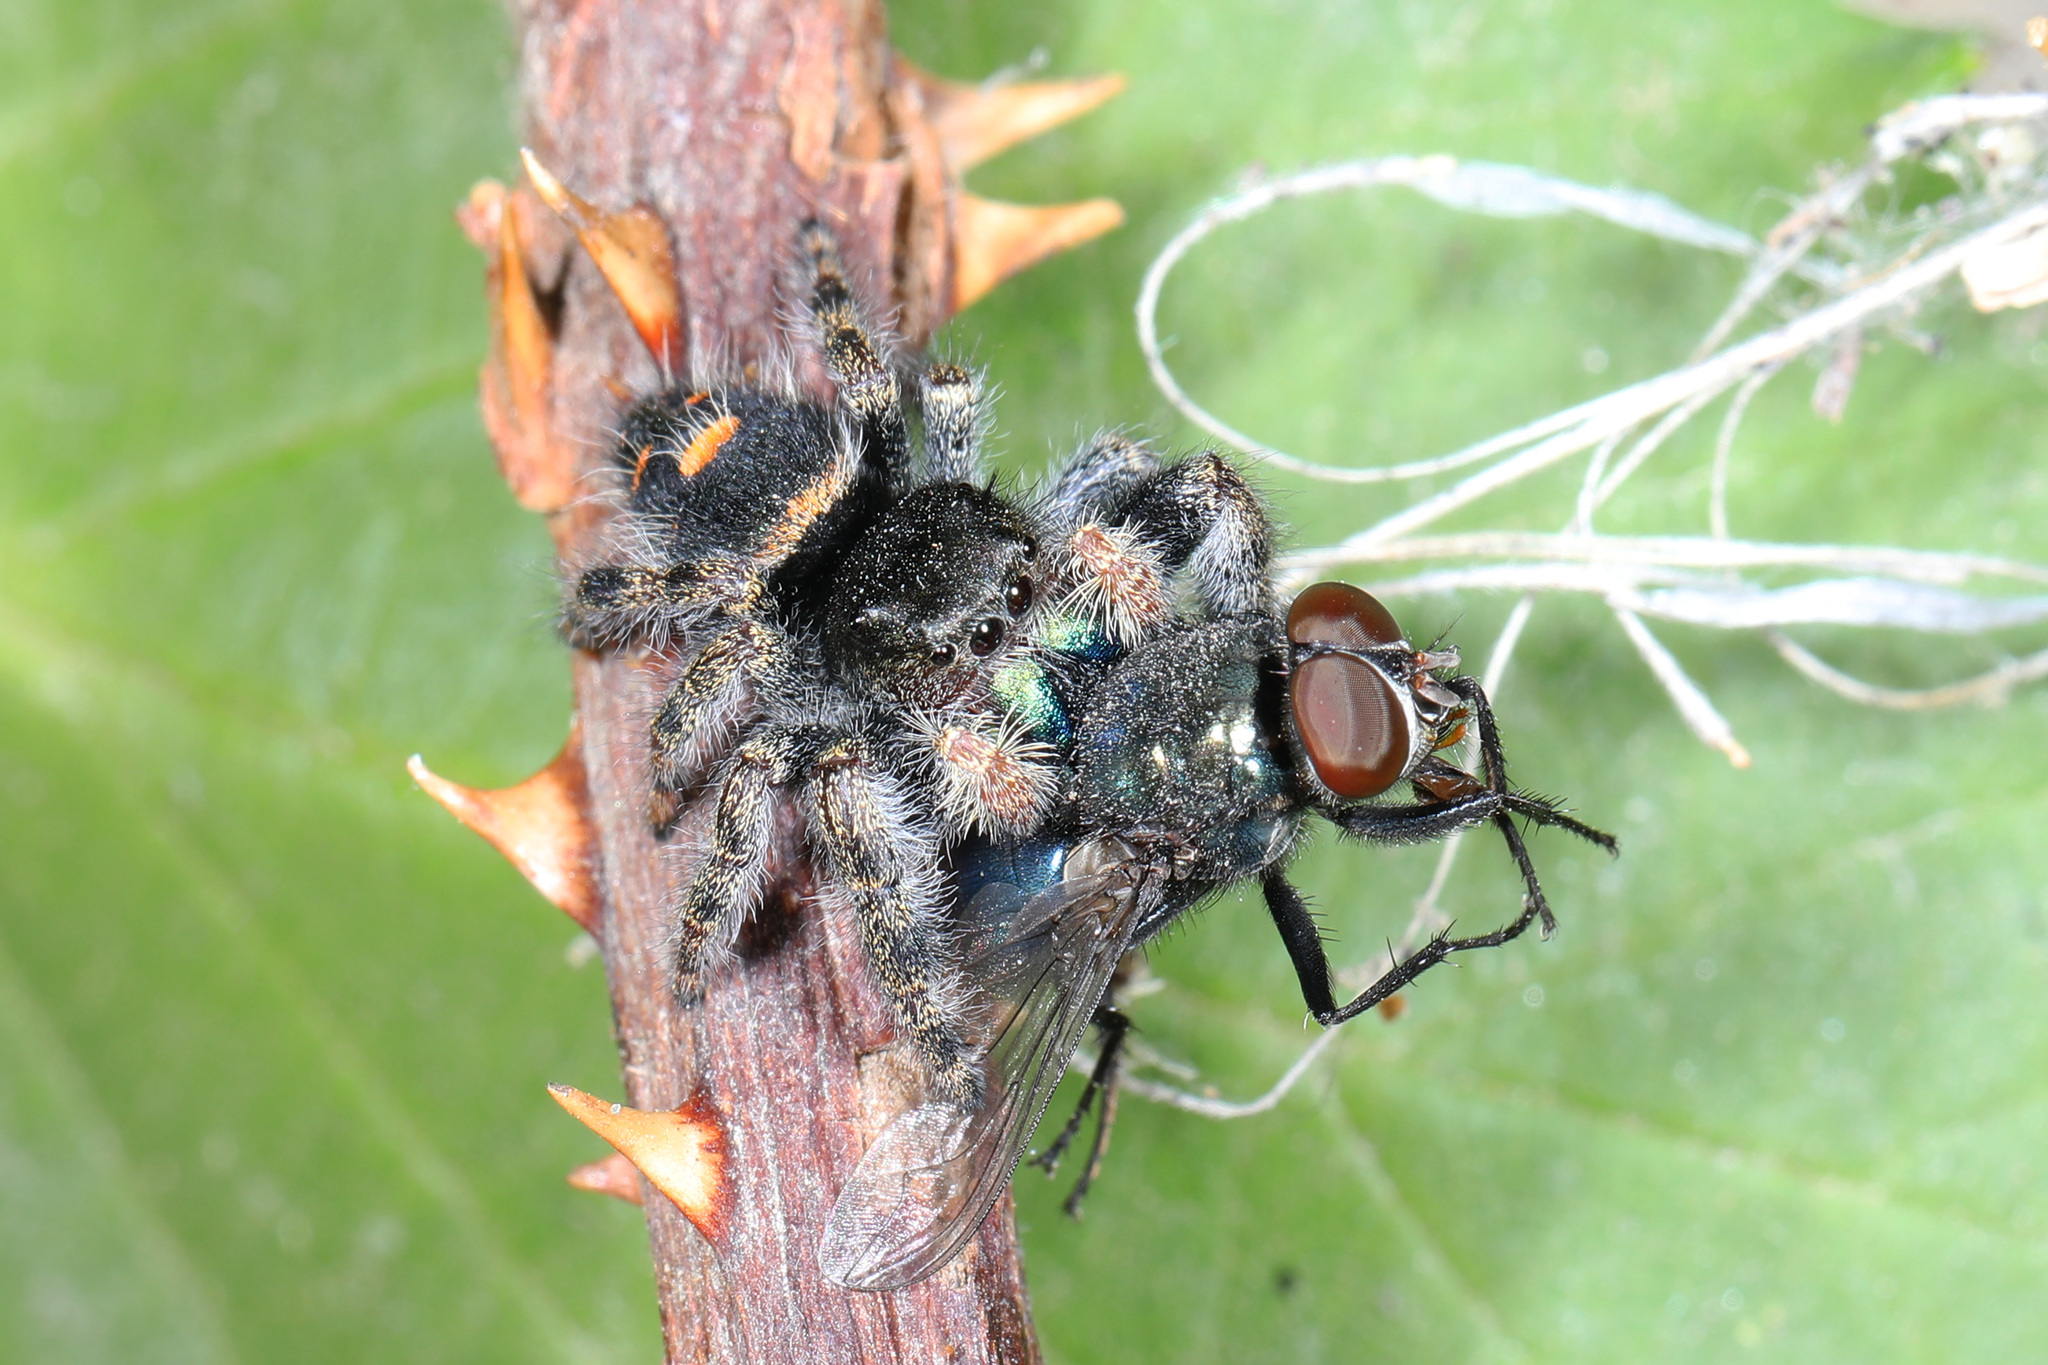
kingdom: Animalia
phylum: Arthropoda
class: Arachnida
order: Araneae
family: Salticidae
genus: Phidippus
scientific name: Phidippus audax
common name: Bold jumper
